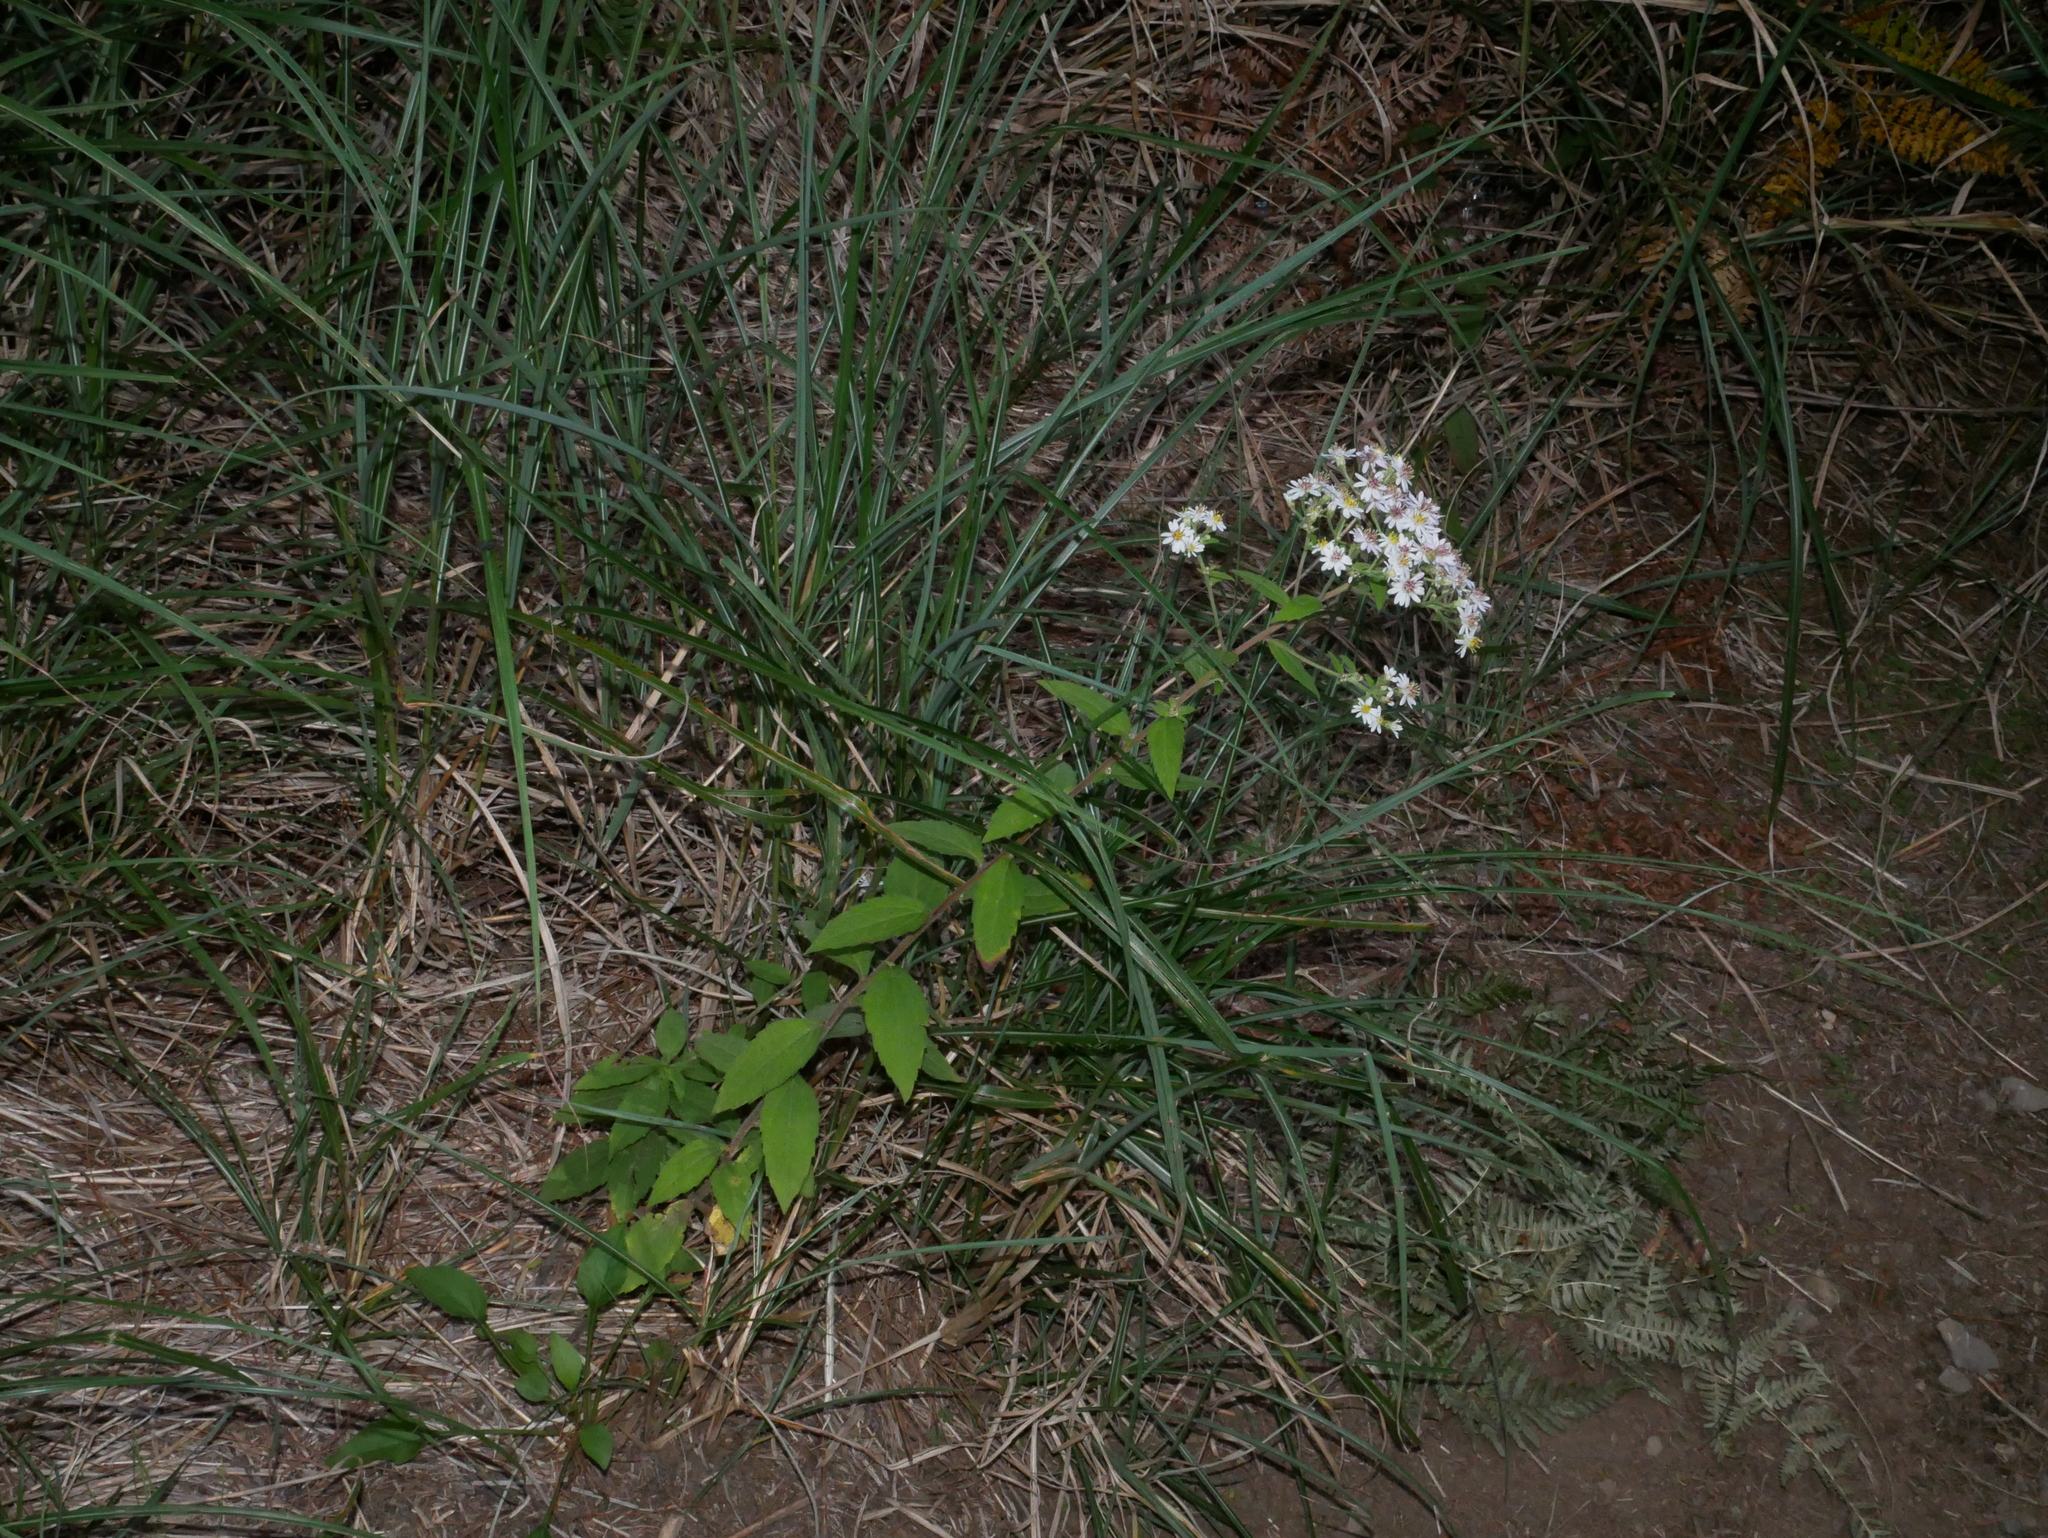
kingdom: Plantae
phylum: Tracheophyta
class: Magnoliopsida
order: Asterales
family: Asteraceae
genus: Aster
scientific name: Aster ageratoides
